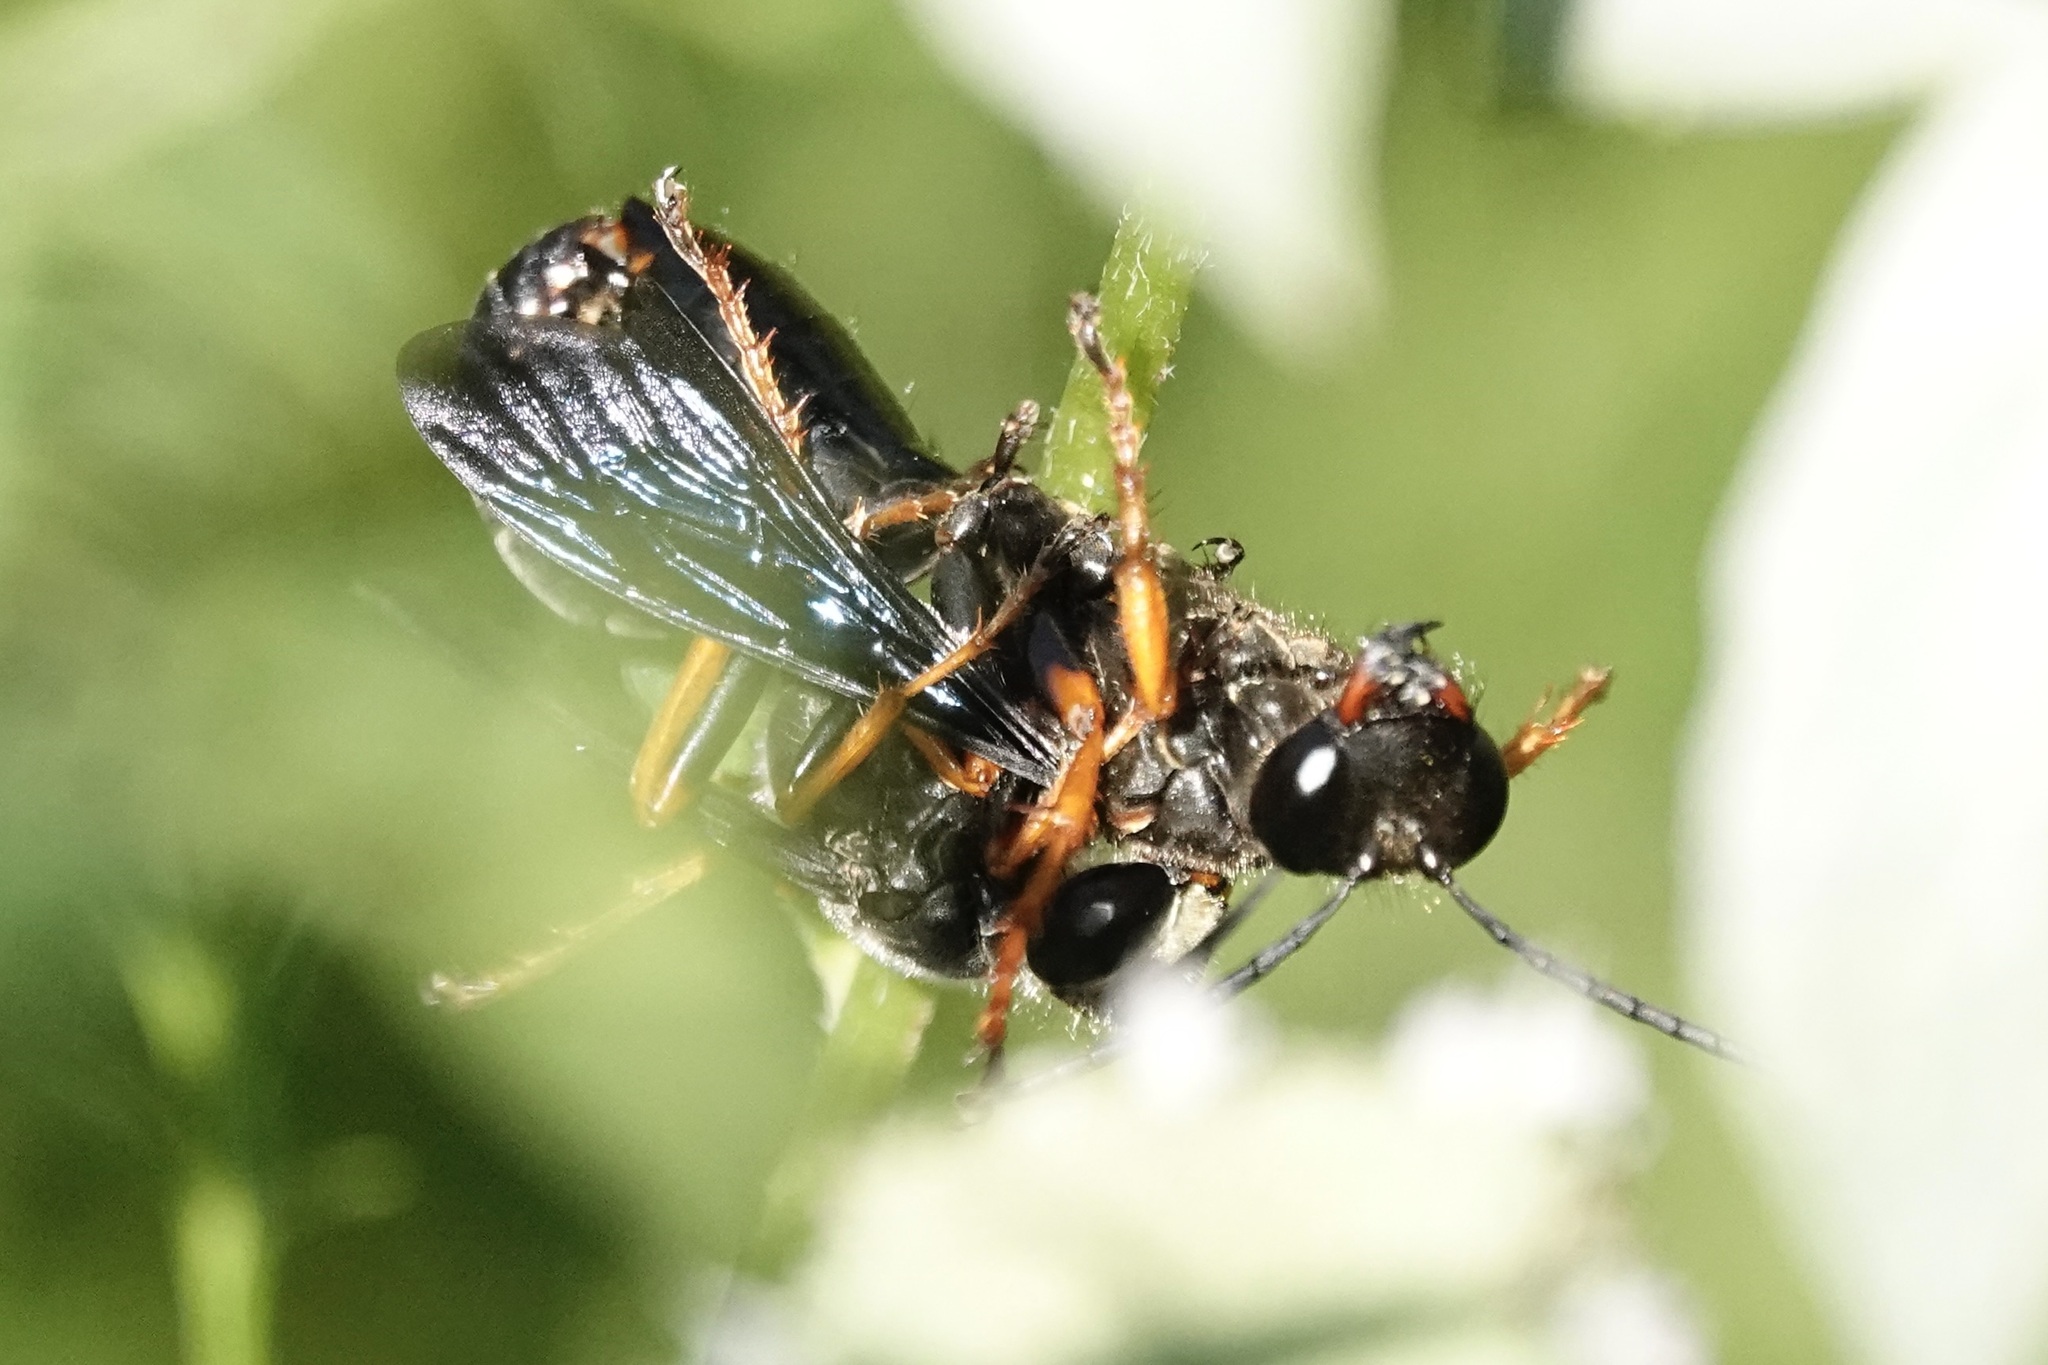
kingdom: Animalia
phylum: Arthropoda
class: Insecta
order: Hymenoptera
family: Sphecidae
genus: Sphex
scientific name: Sphex nudus
